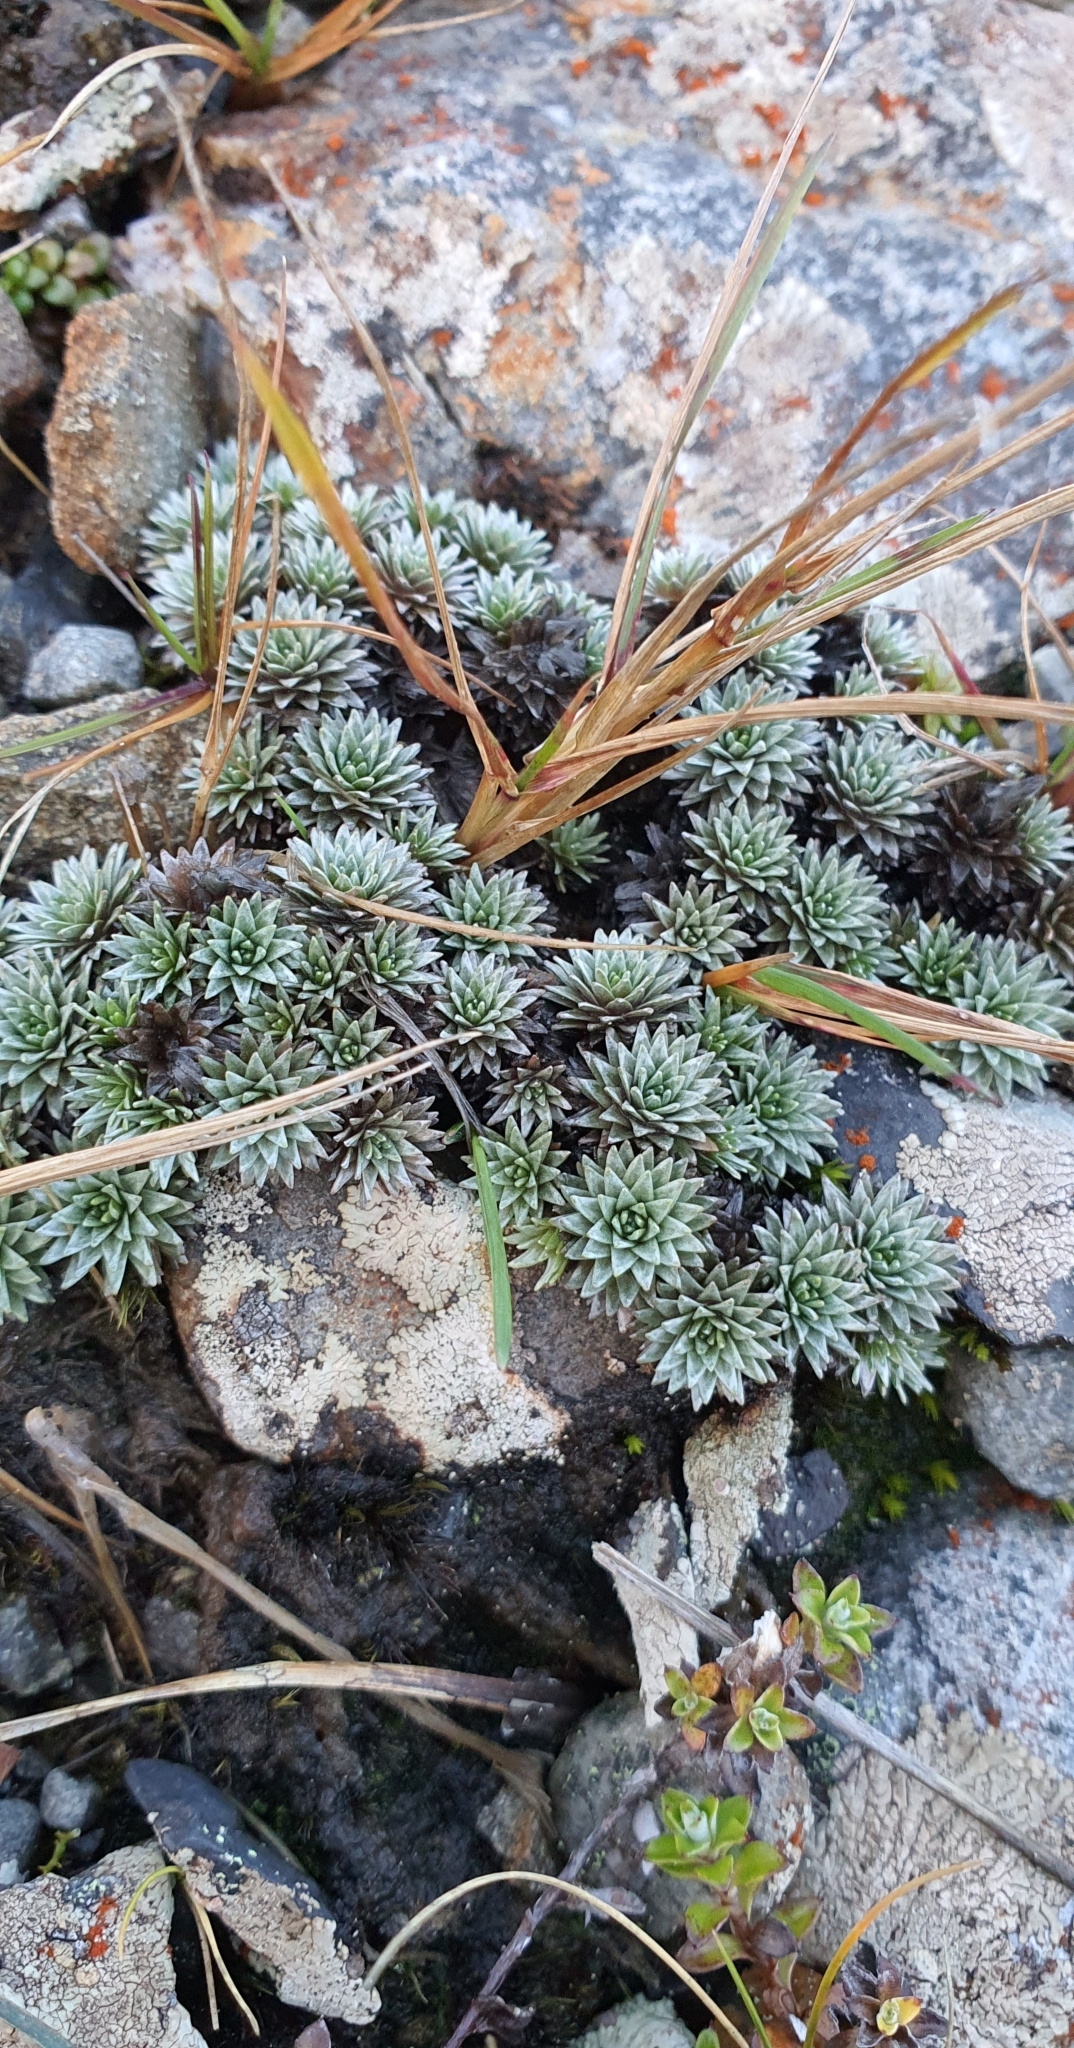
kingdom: Plantae
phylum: Tracheophyta
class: Magnoliopsida
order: Asterales
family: Asteraceae
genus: Raoulia
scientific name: Raoulia grandiflora
